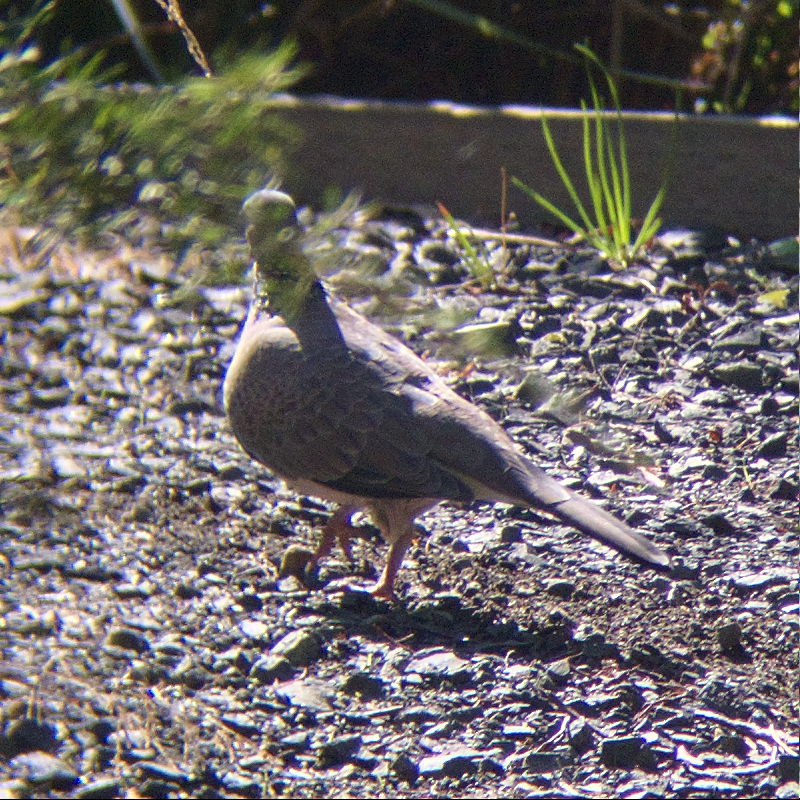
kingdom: Animalia
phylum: Chordata
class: Aves
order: Columbiformes
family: Columbidae
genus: Spilopelia
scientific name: Spilopelia chinensis
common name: Spotted dove
